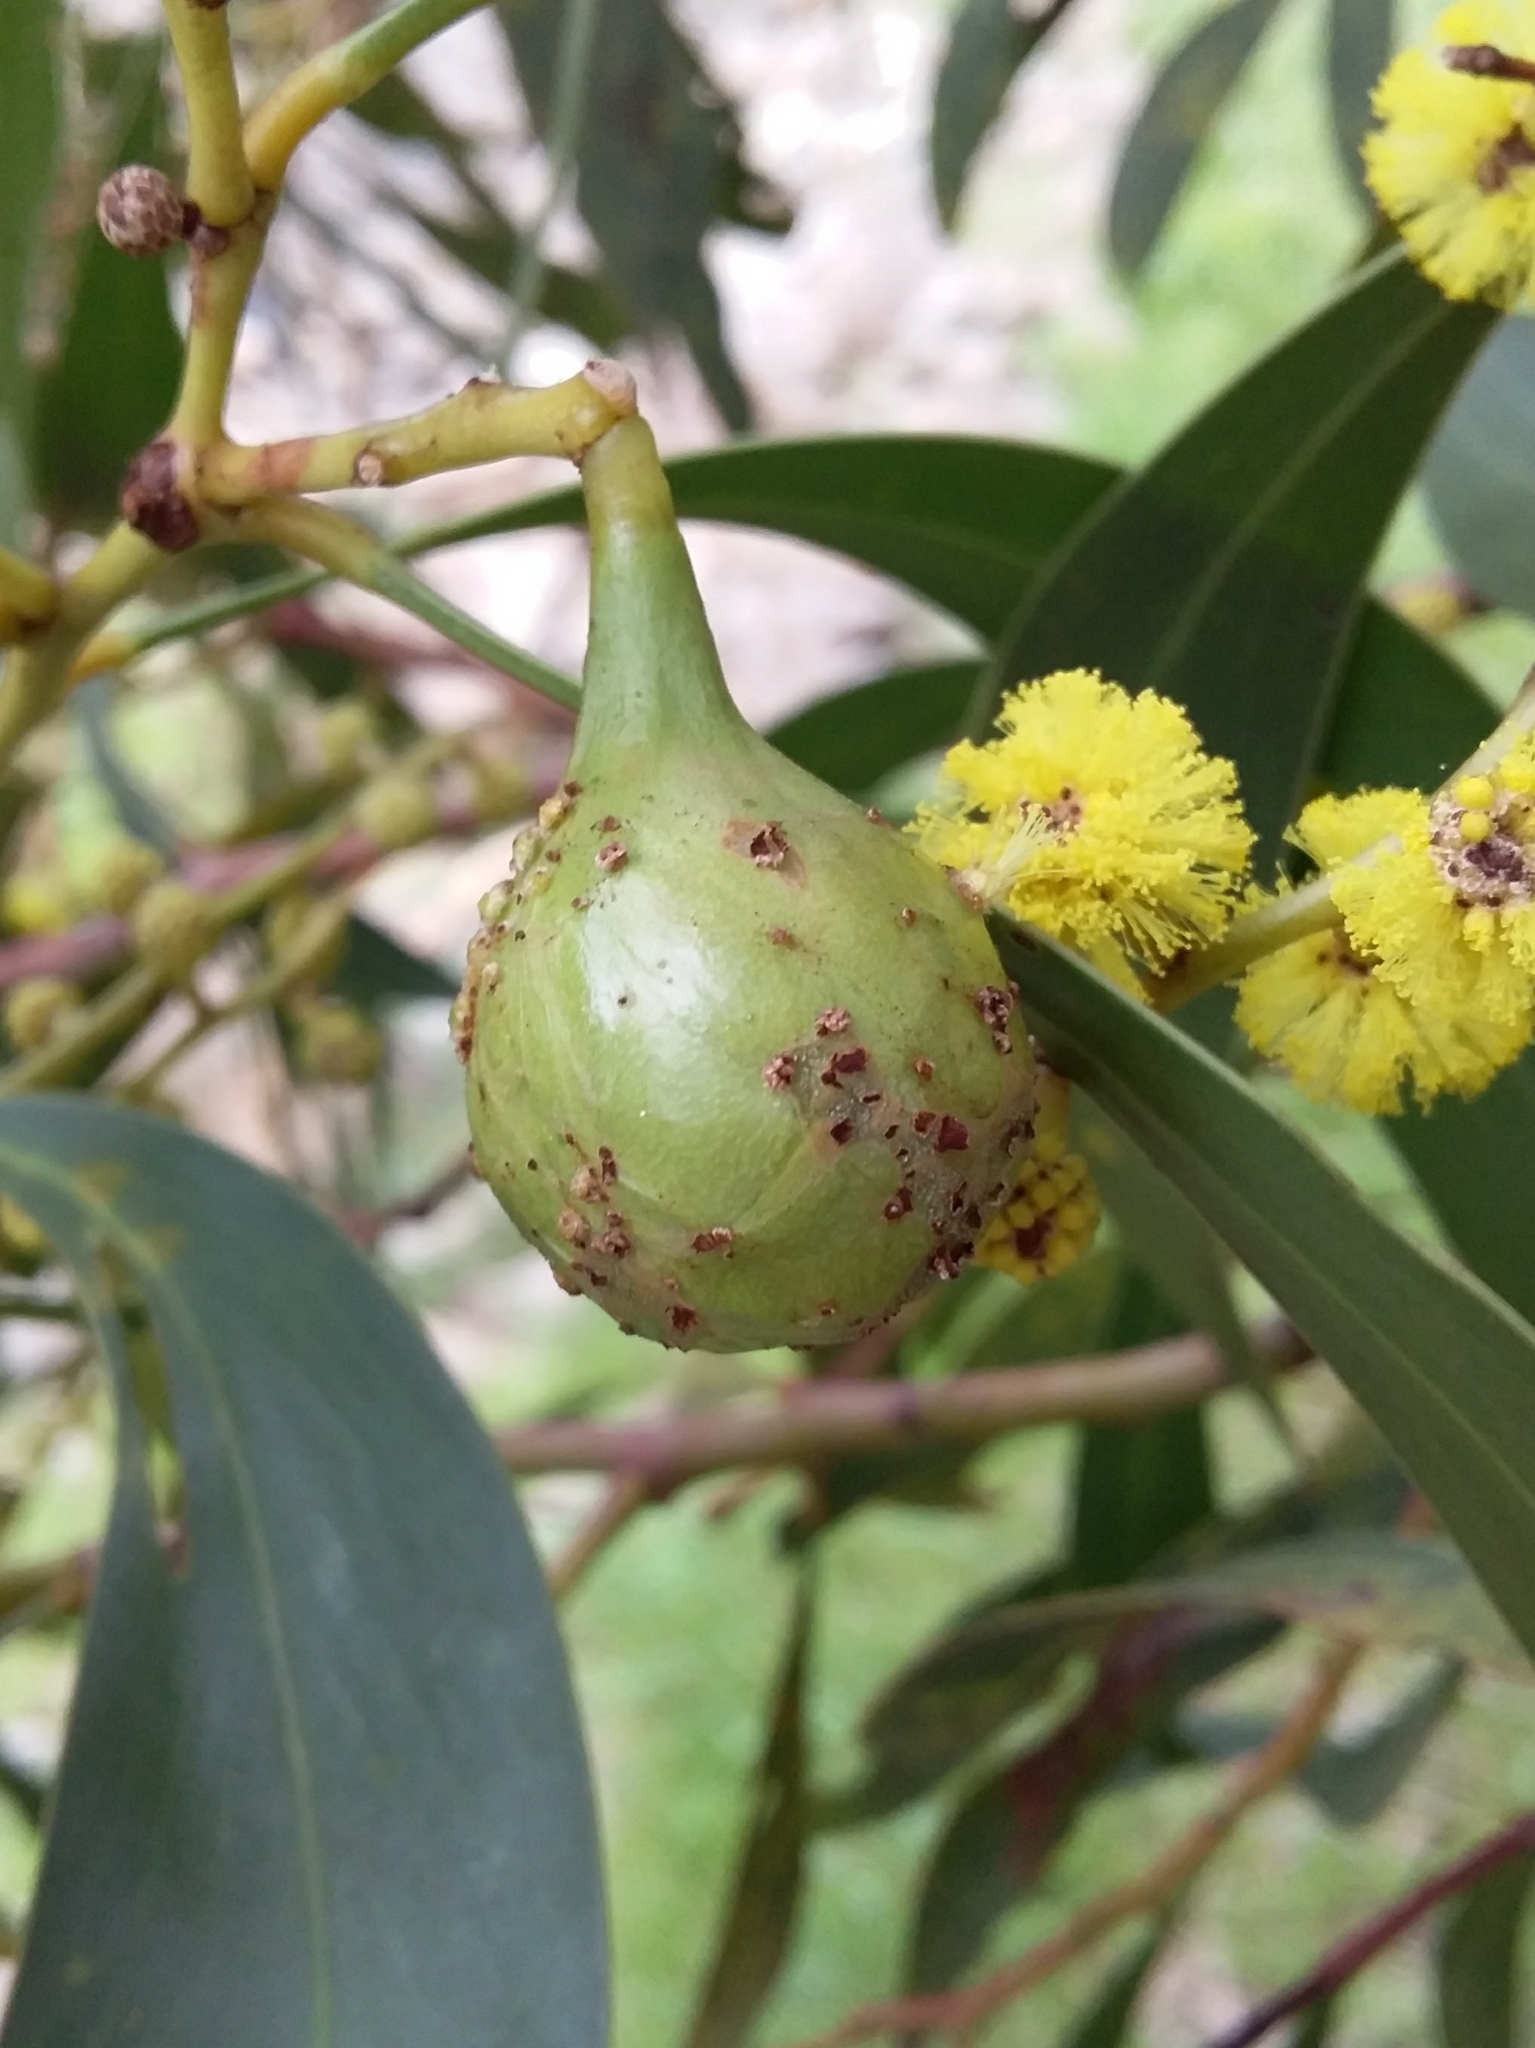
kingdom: Animalia
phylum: Arthropoda
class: Insecta
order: Hymenoptera
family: Pteromalidae
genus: Trichilogaster
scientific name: Trichilogaster signiventris
